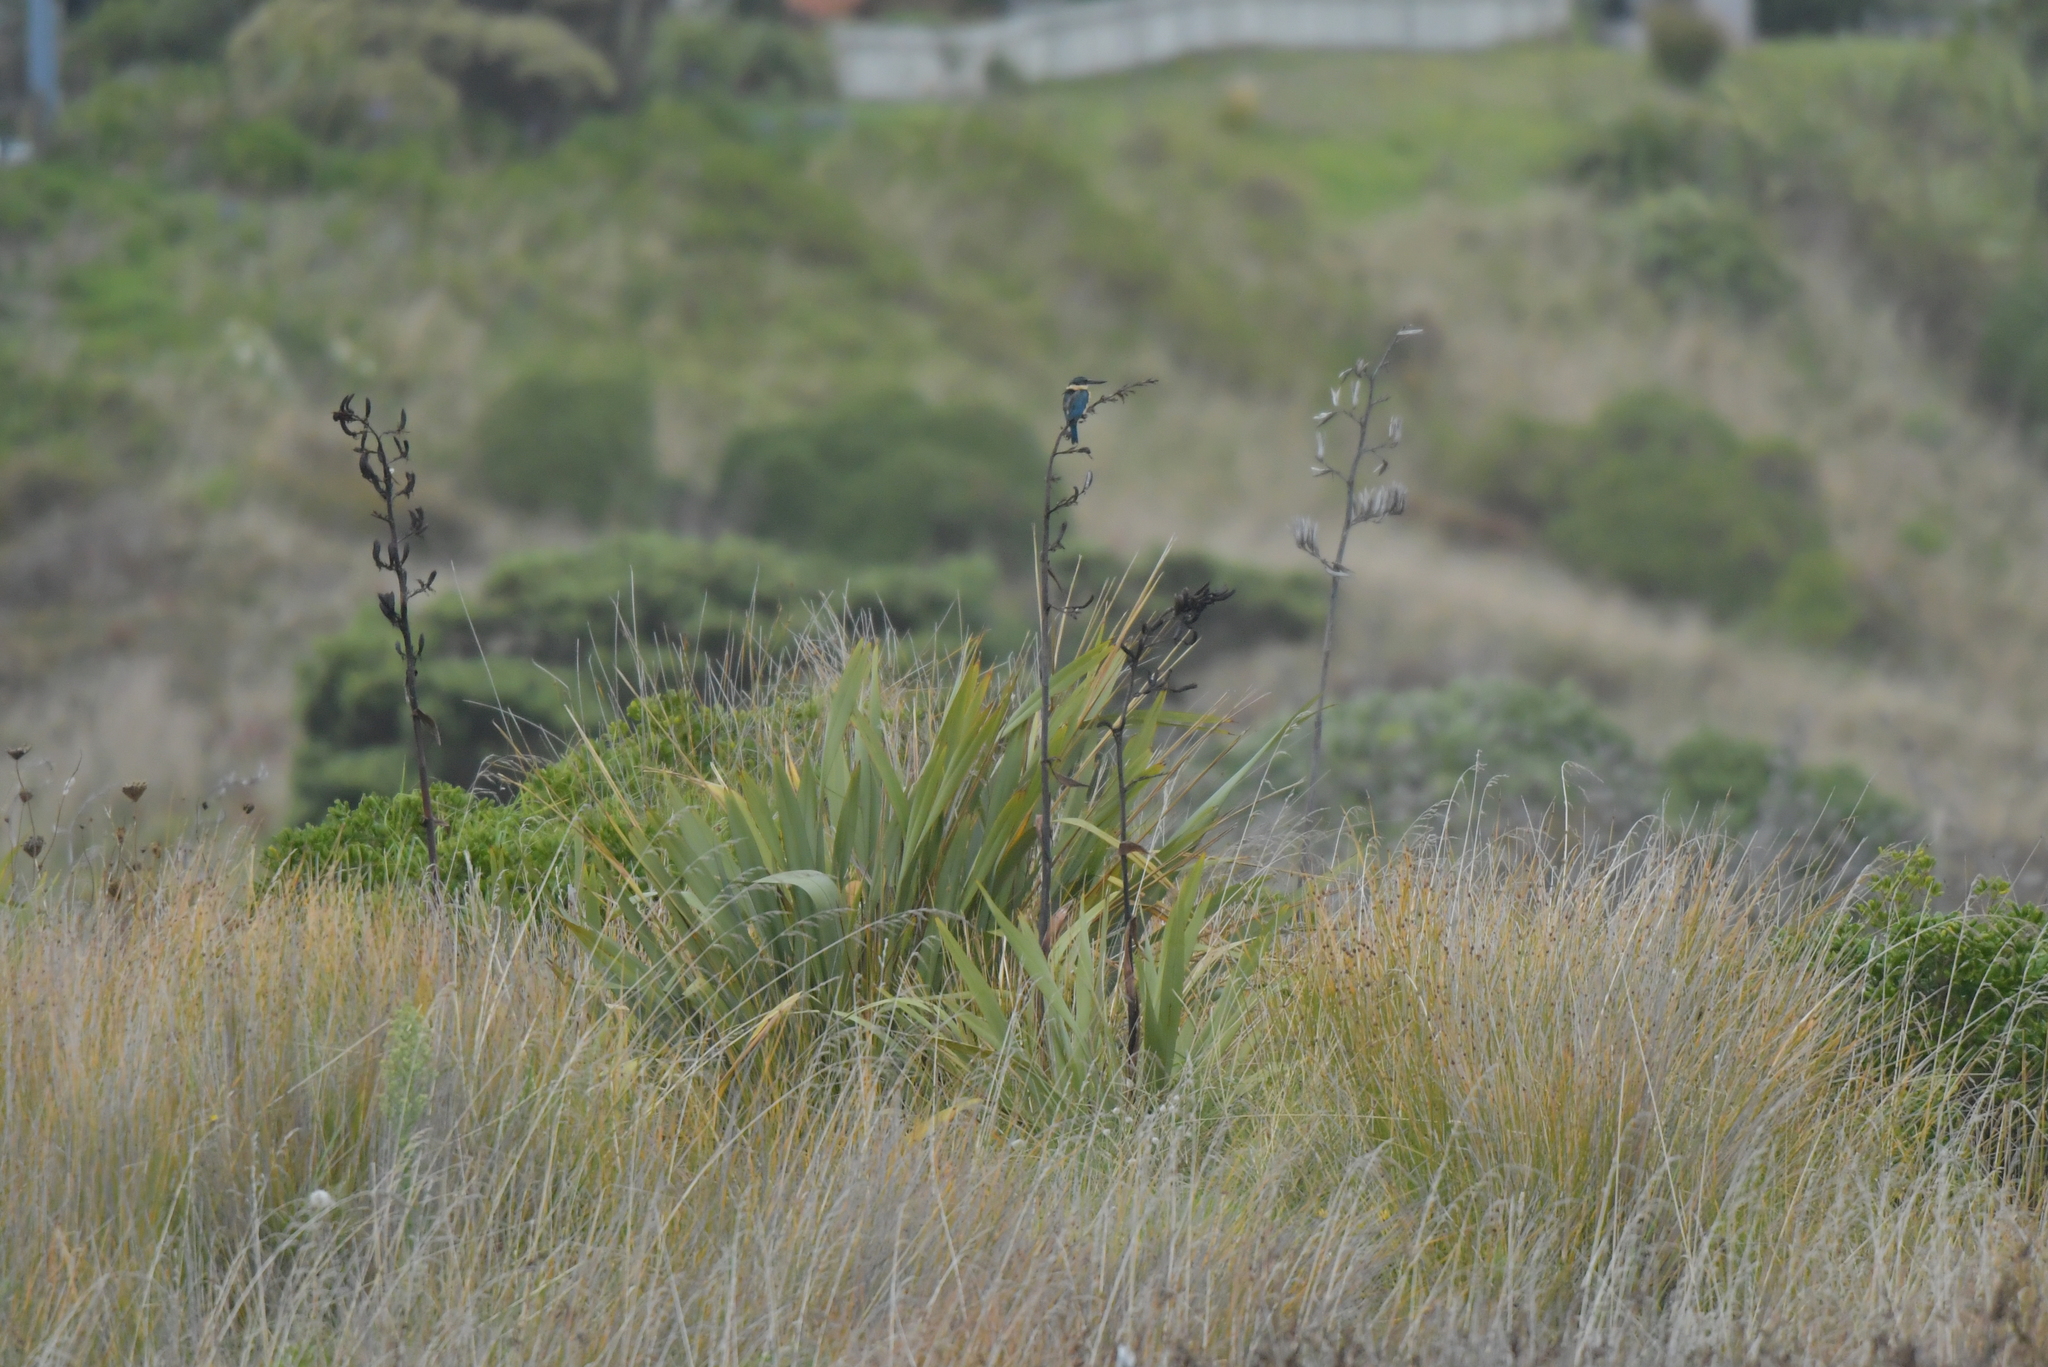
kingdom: Animalia
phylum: Chordata
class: Aves
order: Coraciiformes
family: Alcedinidae
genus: Todiramphus
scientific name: Todiramphus sanctus
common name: Sacred kingfisher
